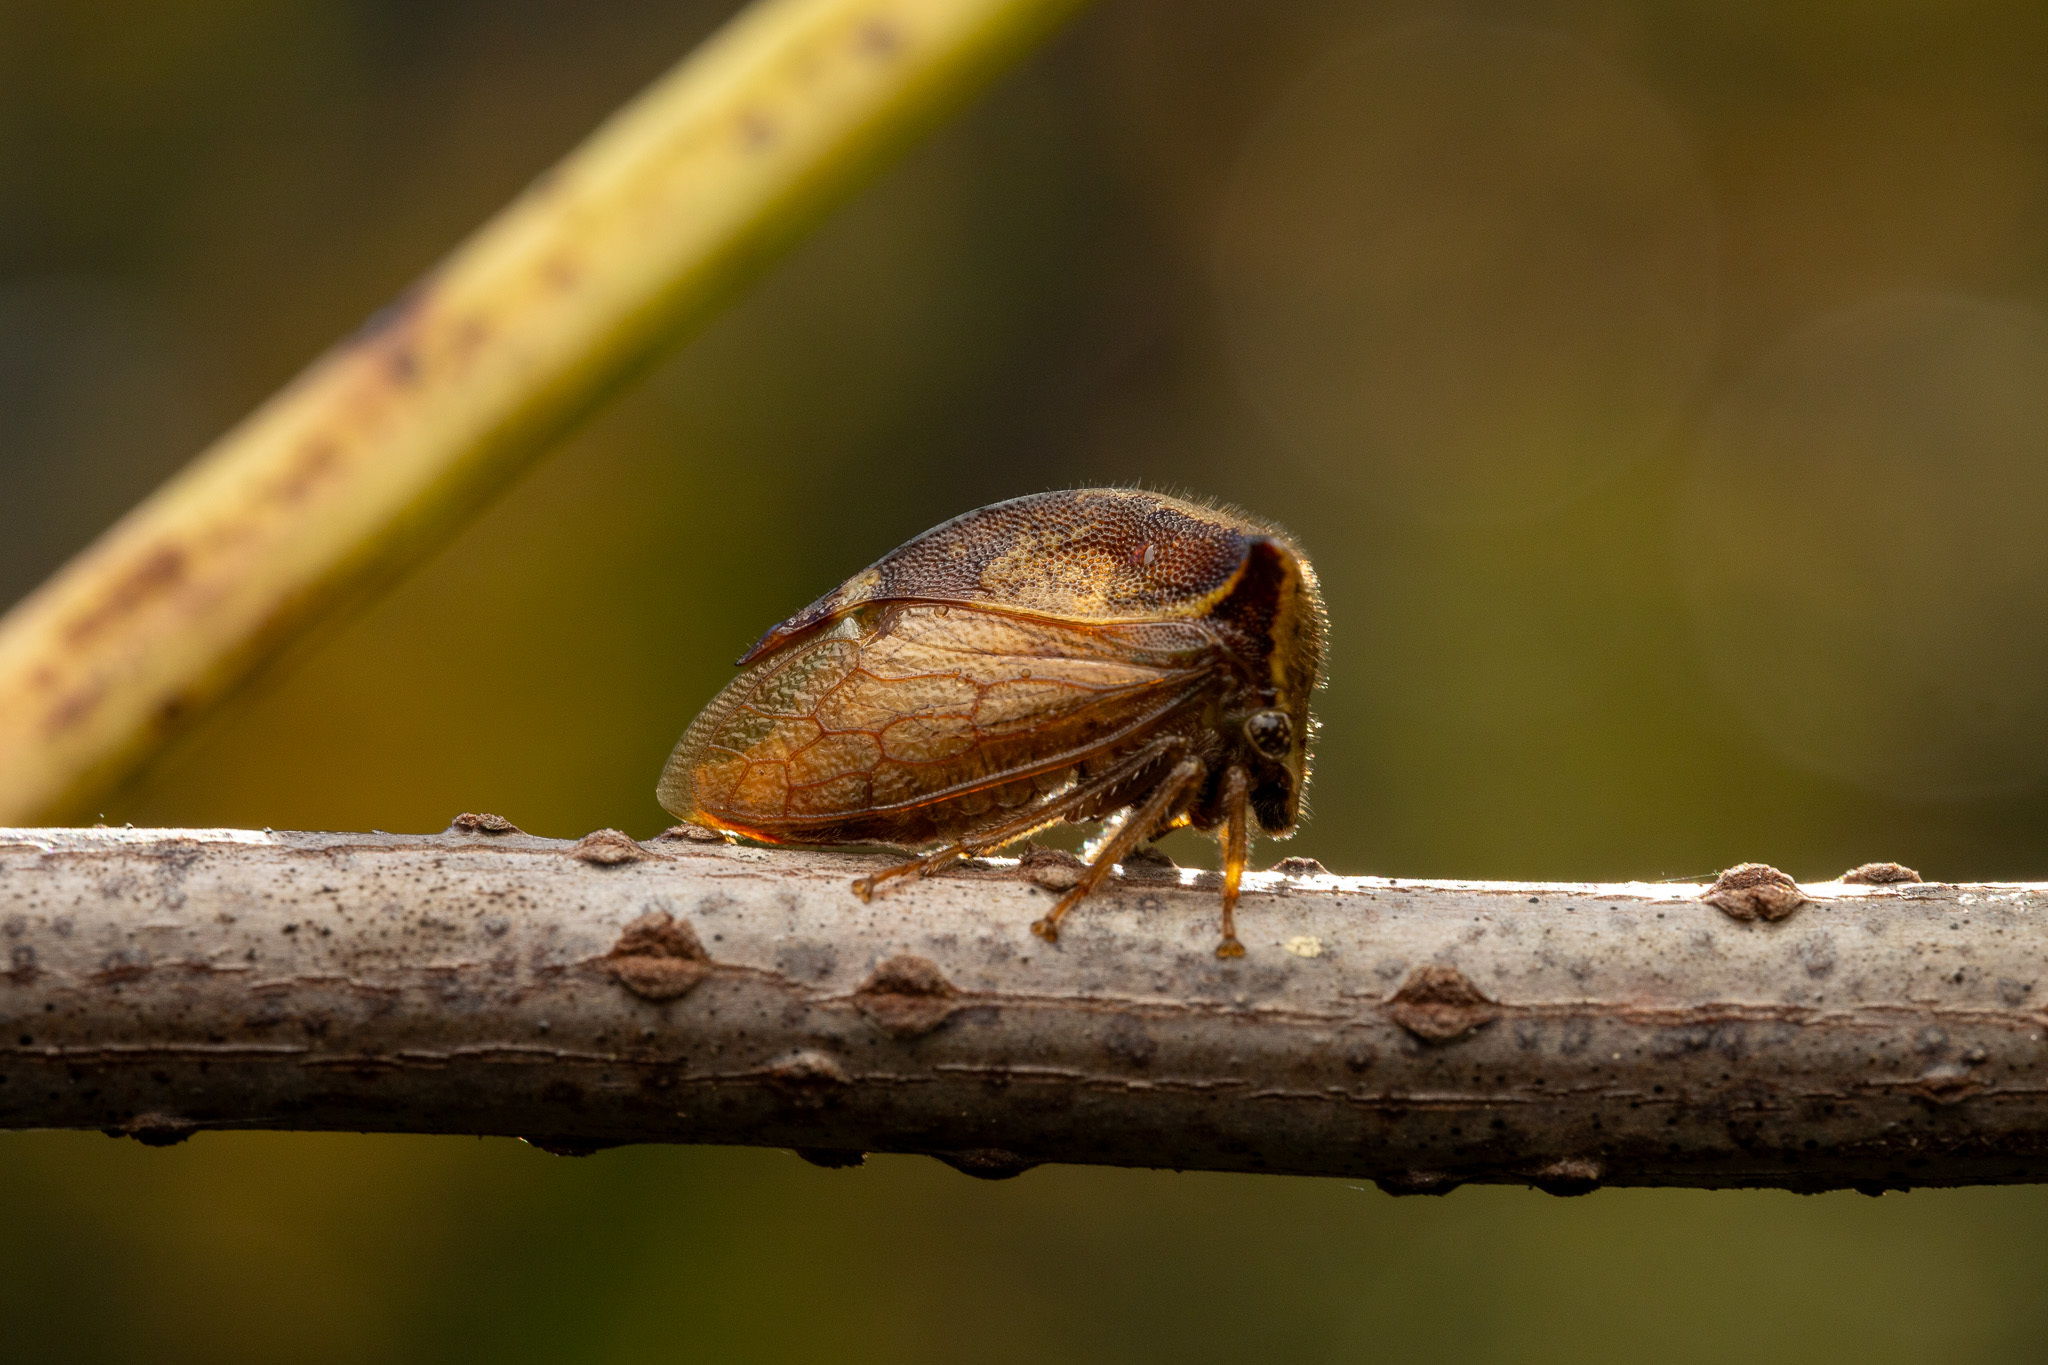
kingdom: Animalia
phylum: Arthropoda
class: Insecta
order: Hemiptera
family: Membracidae
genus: Stictocephala
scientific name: Stictocephala diceros
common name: Two-horned treehopper
